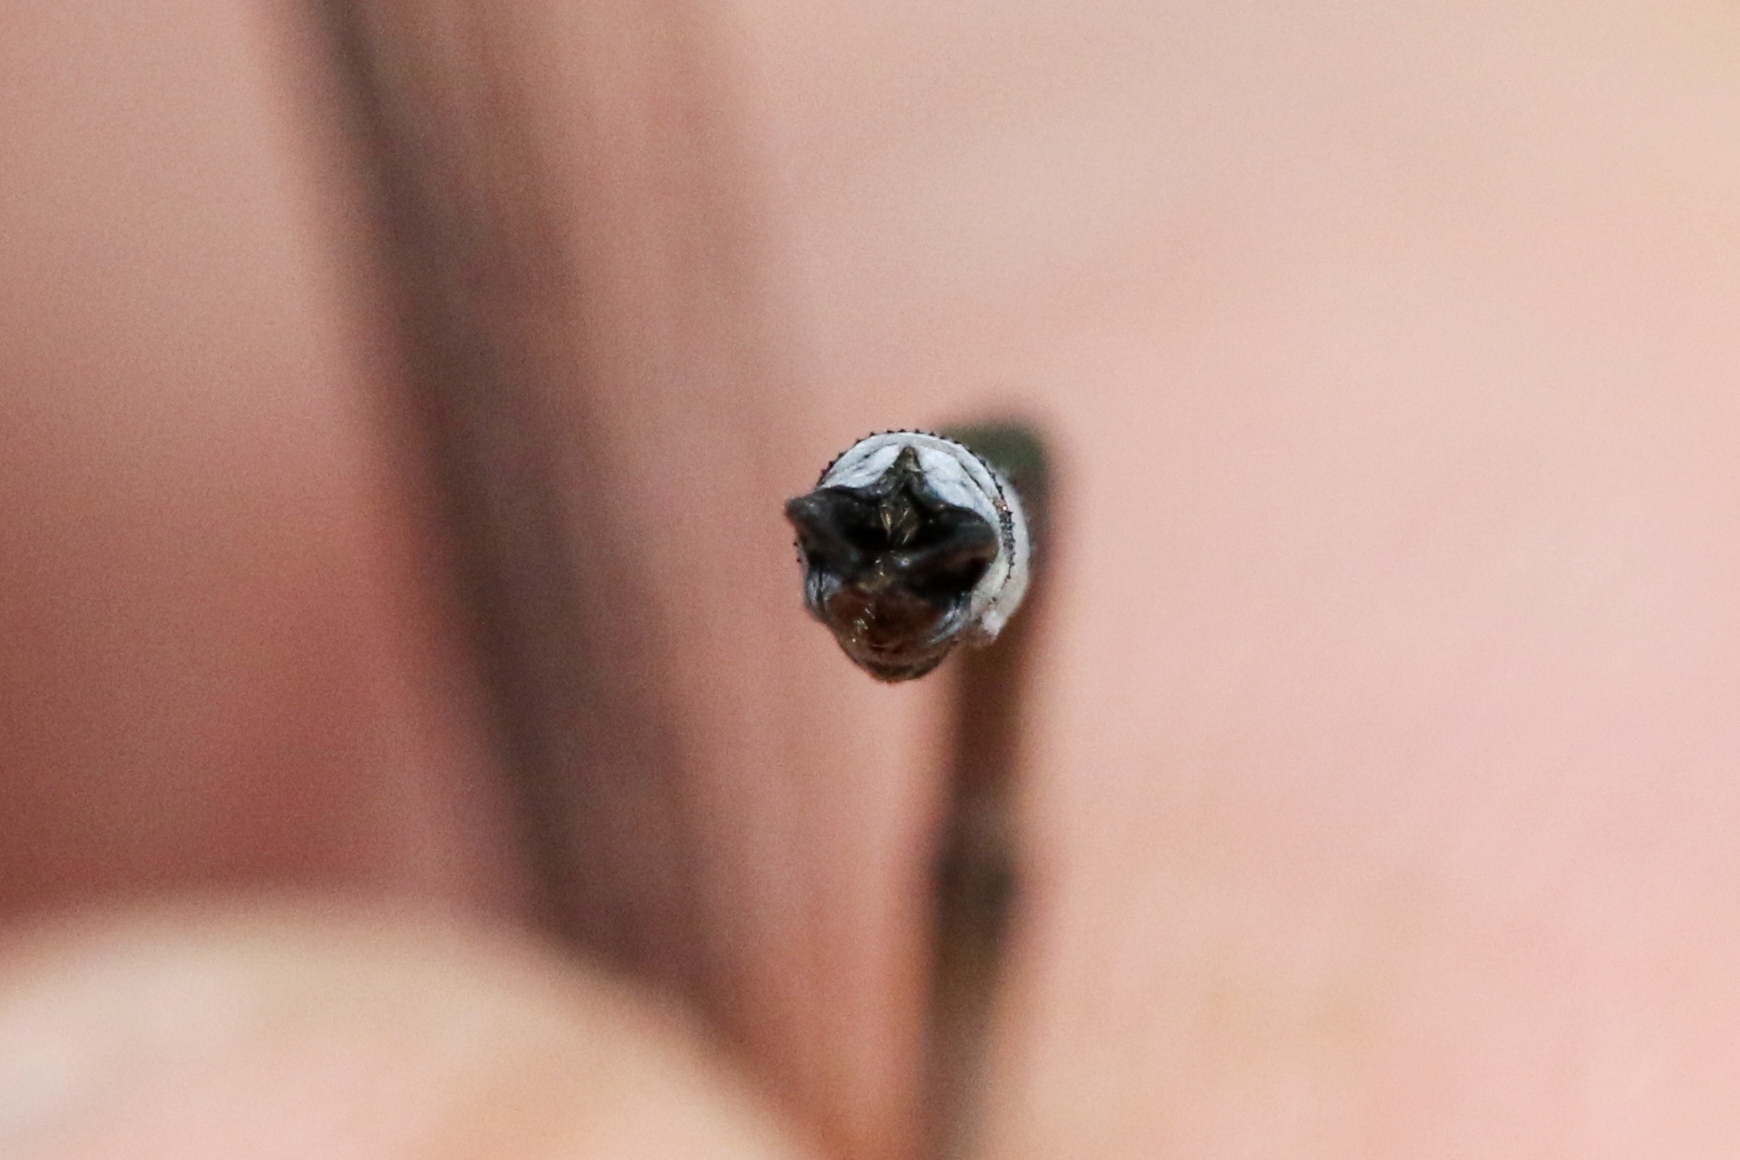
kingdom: Animalia
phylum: Arthropoda
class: Insecta
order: Odonata
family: Lestidae
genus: Lestes
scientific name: Lestes disjunctus
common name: Northern spreadwing
